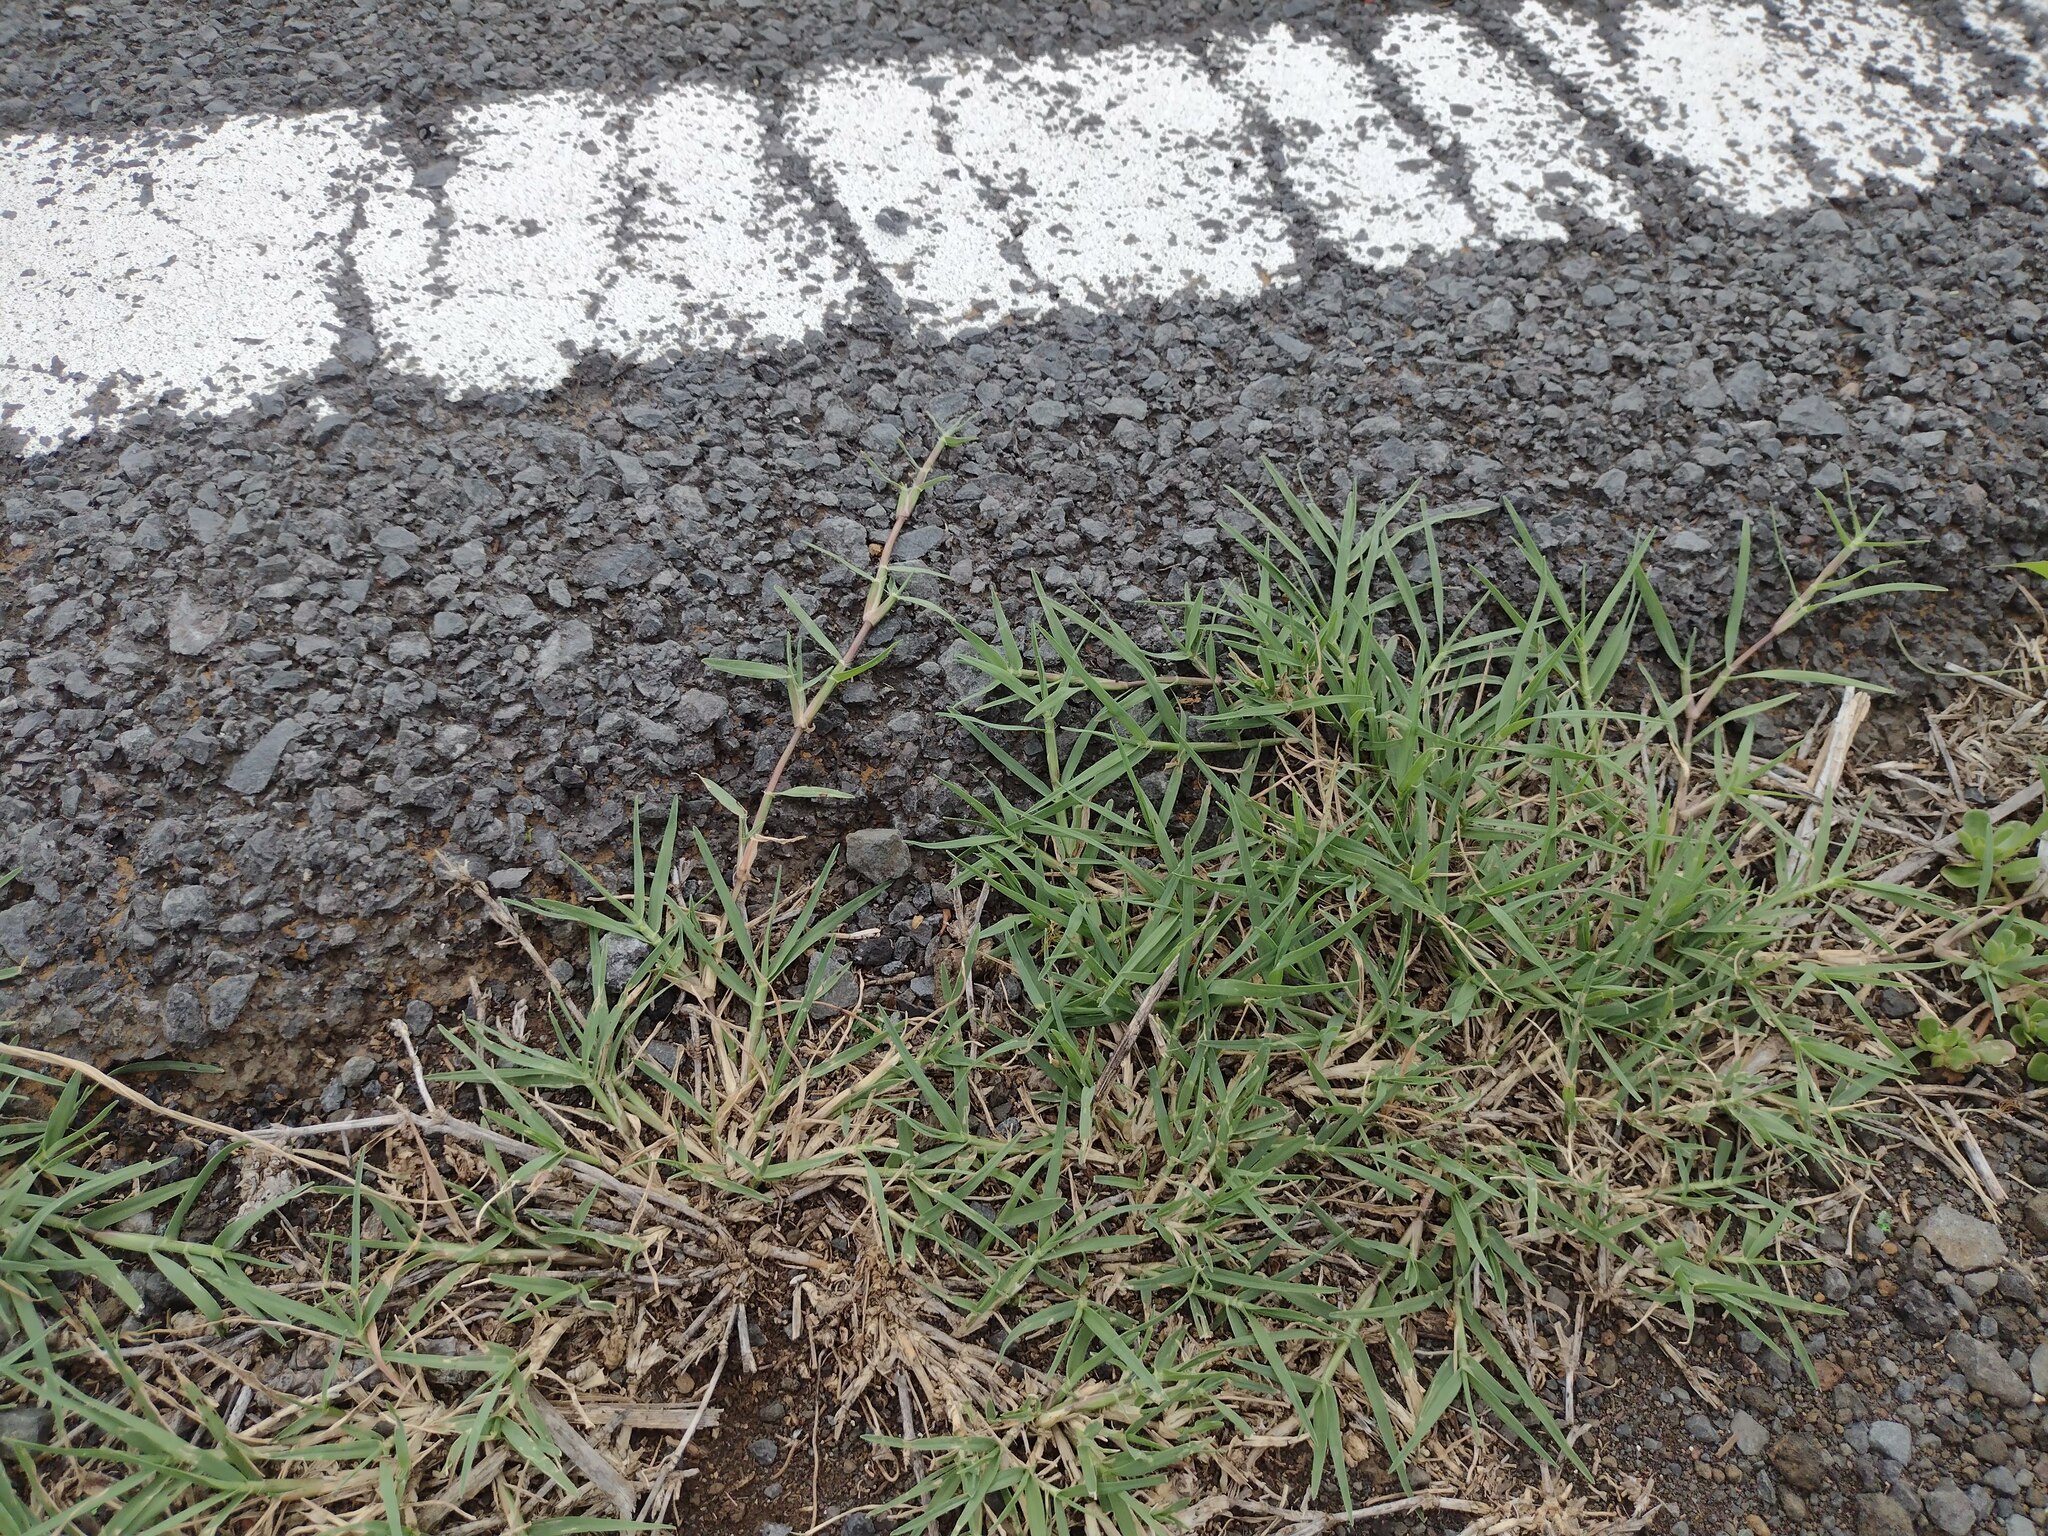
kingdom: Plantae
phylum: Tracheophyta
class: Liliopsida
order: Poales
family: Poaceae
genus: Cynodon
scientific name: Cynodon dactylon
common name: Bermuda grass
